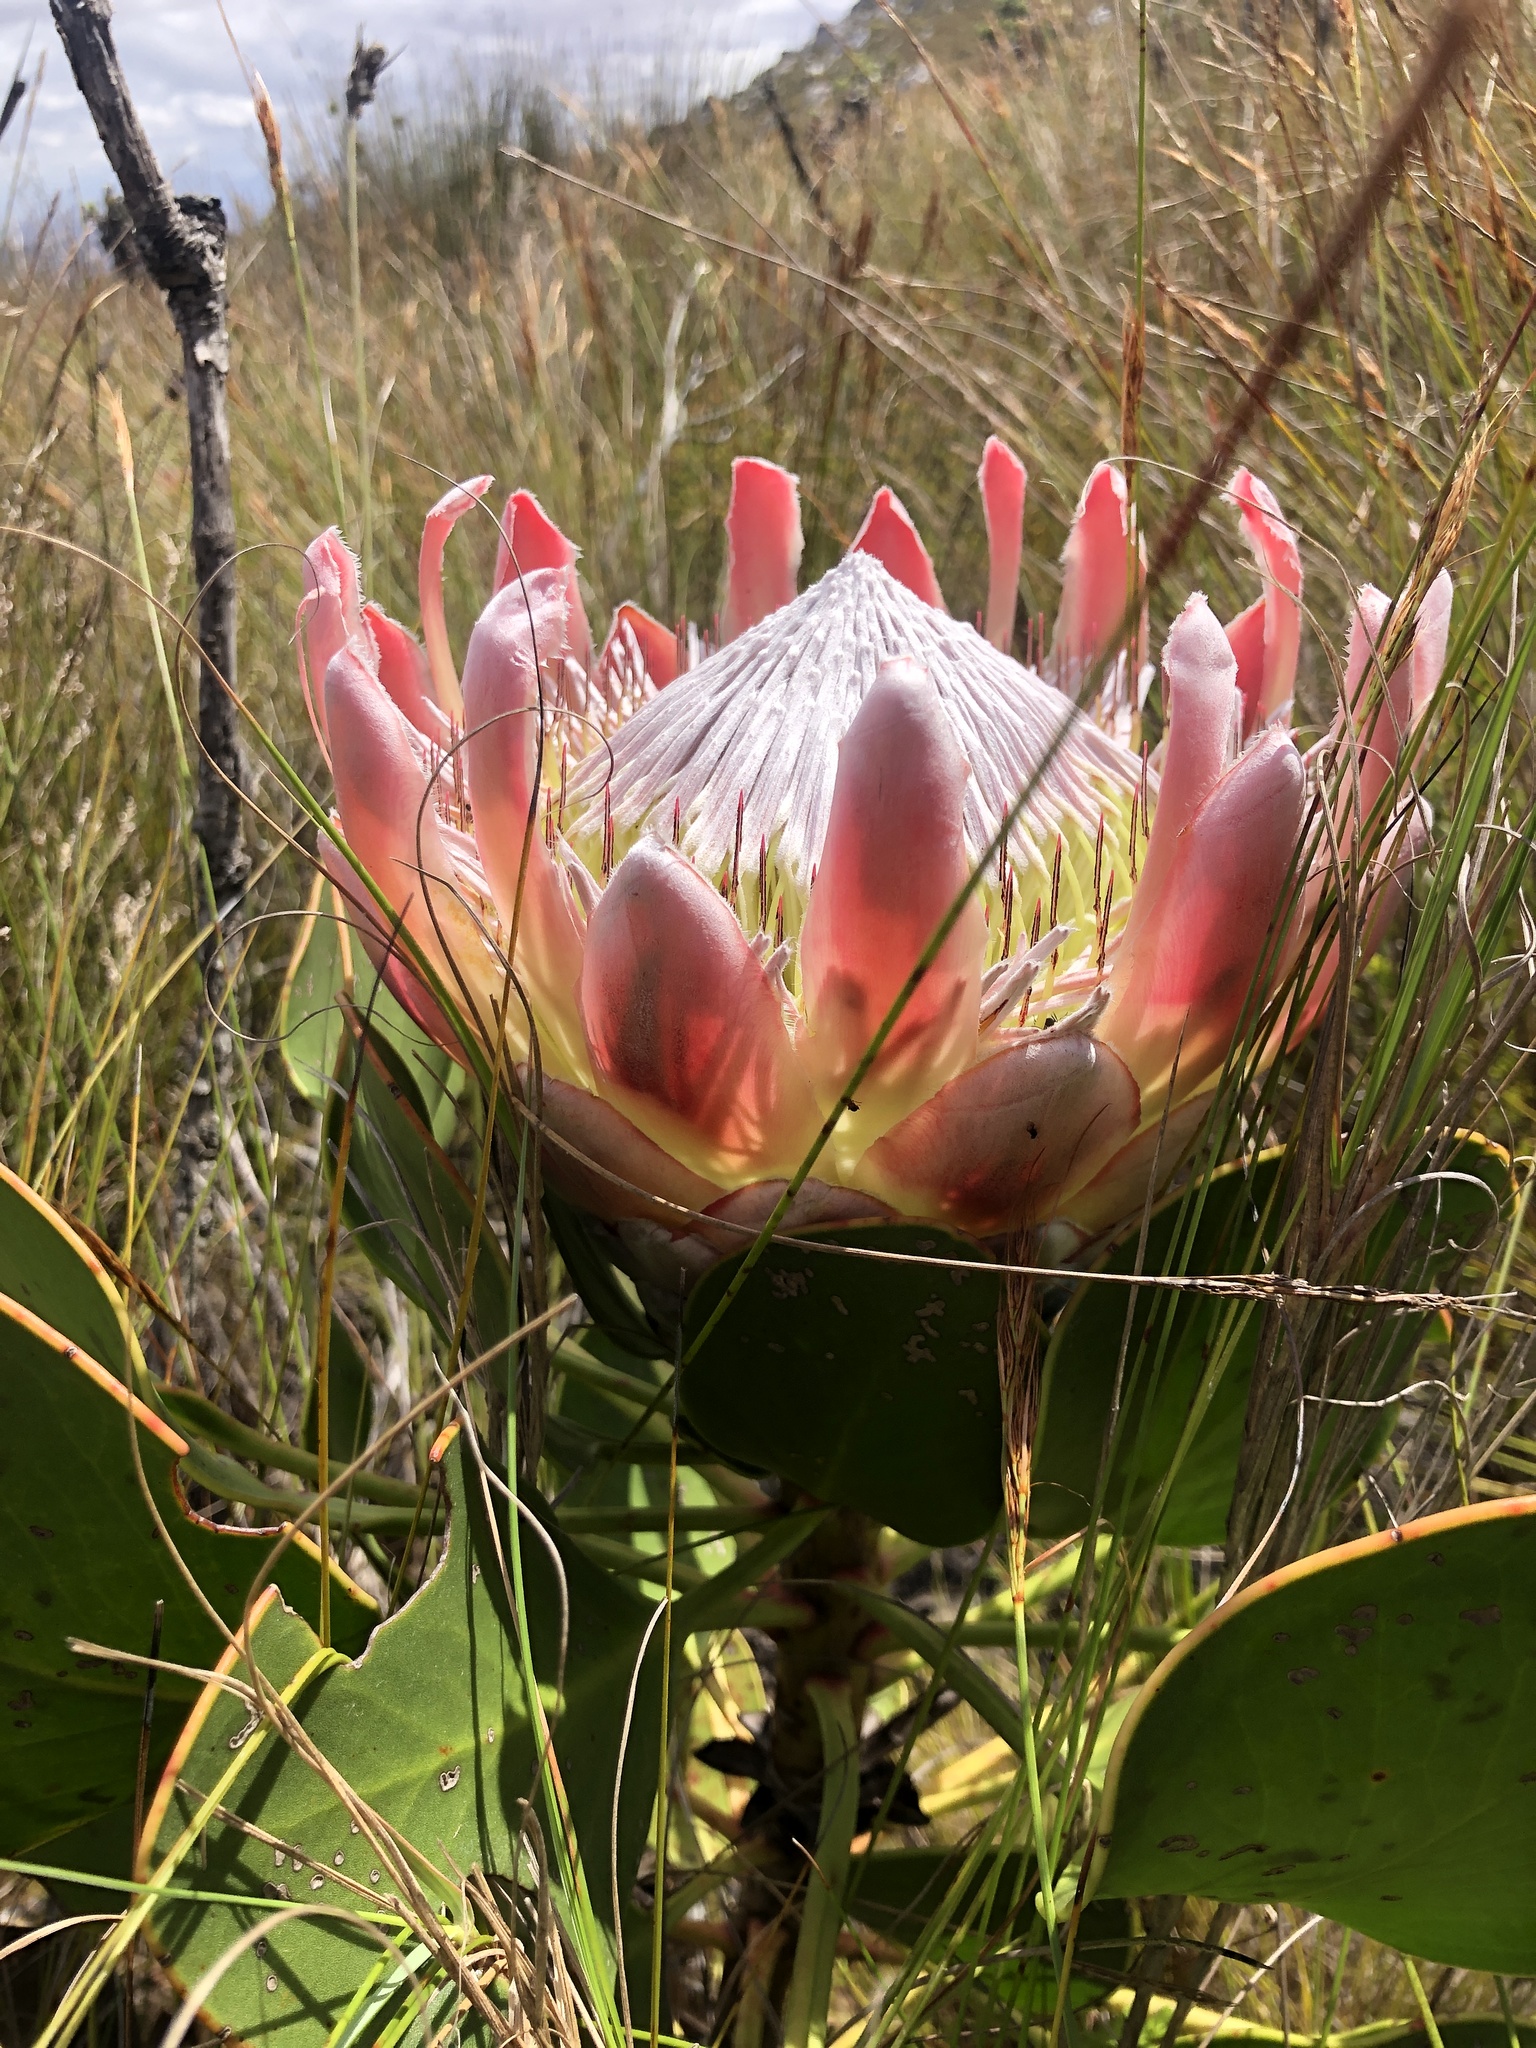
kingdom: Plantae
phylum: Tracheophyta
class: Magnoliopsida
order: Proteales
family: Proteaceae
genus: Protea
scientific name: Protea cynaroides
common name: King protea
